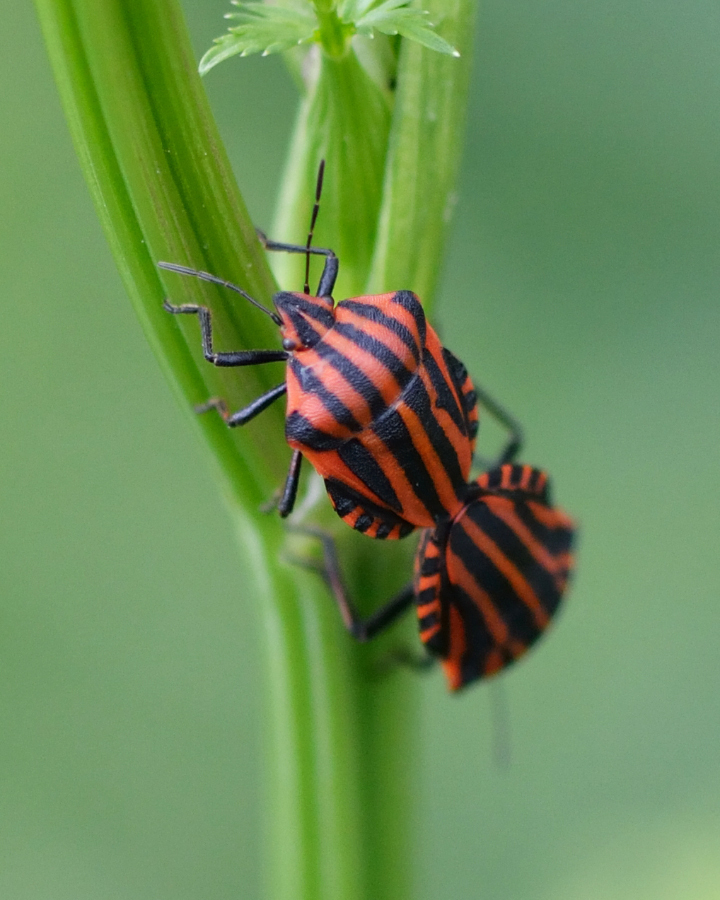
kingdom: Animalia
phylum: Arthropoda
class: Insecta
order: Hemiptera
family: Pentatomidae
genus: Graphosoma
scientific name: Graphosoma italicum
